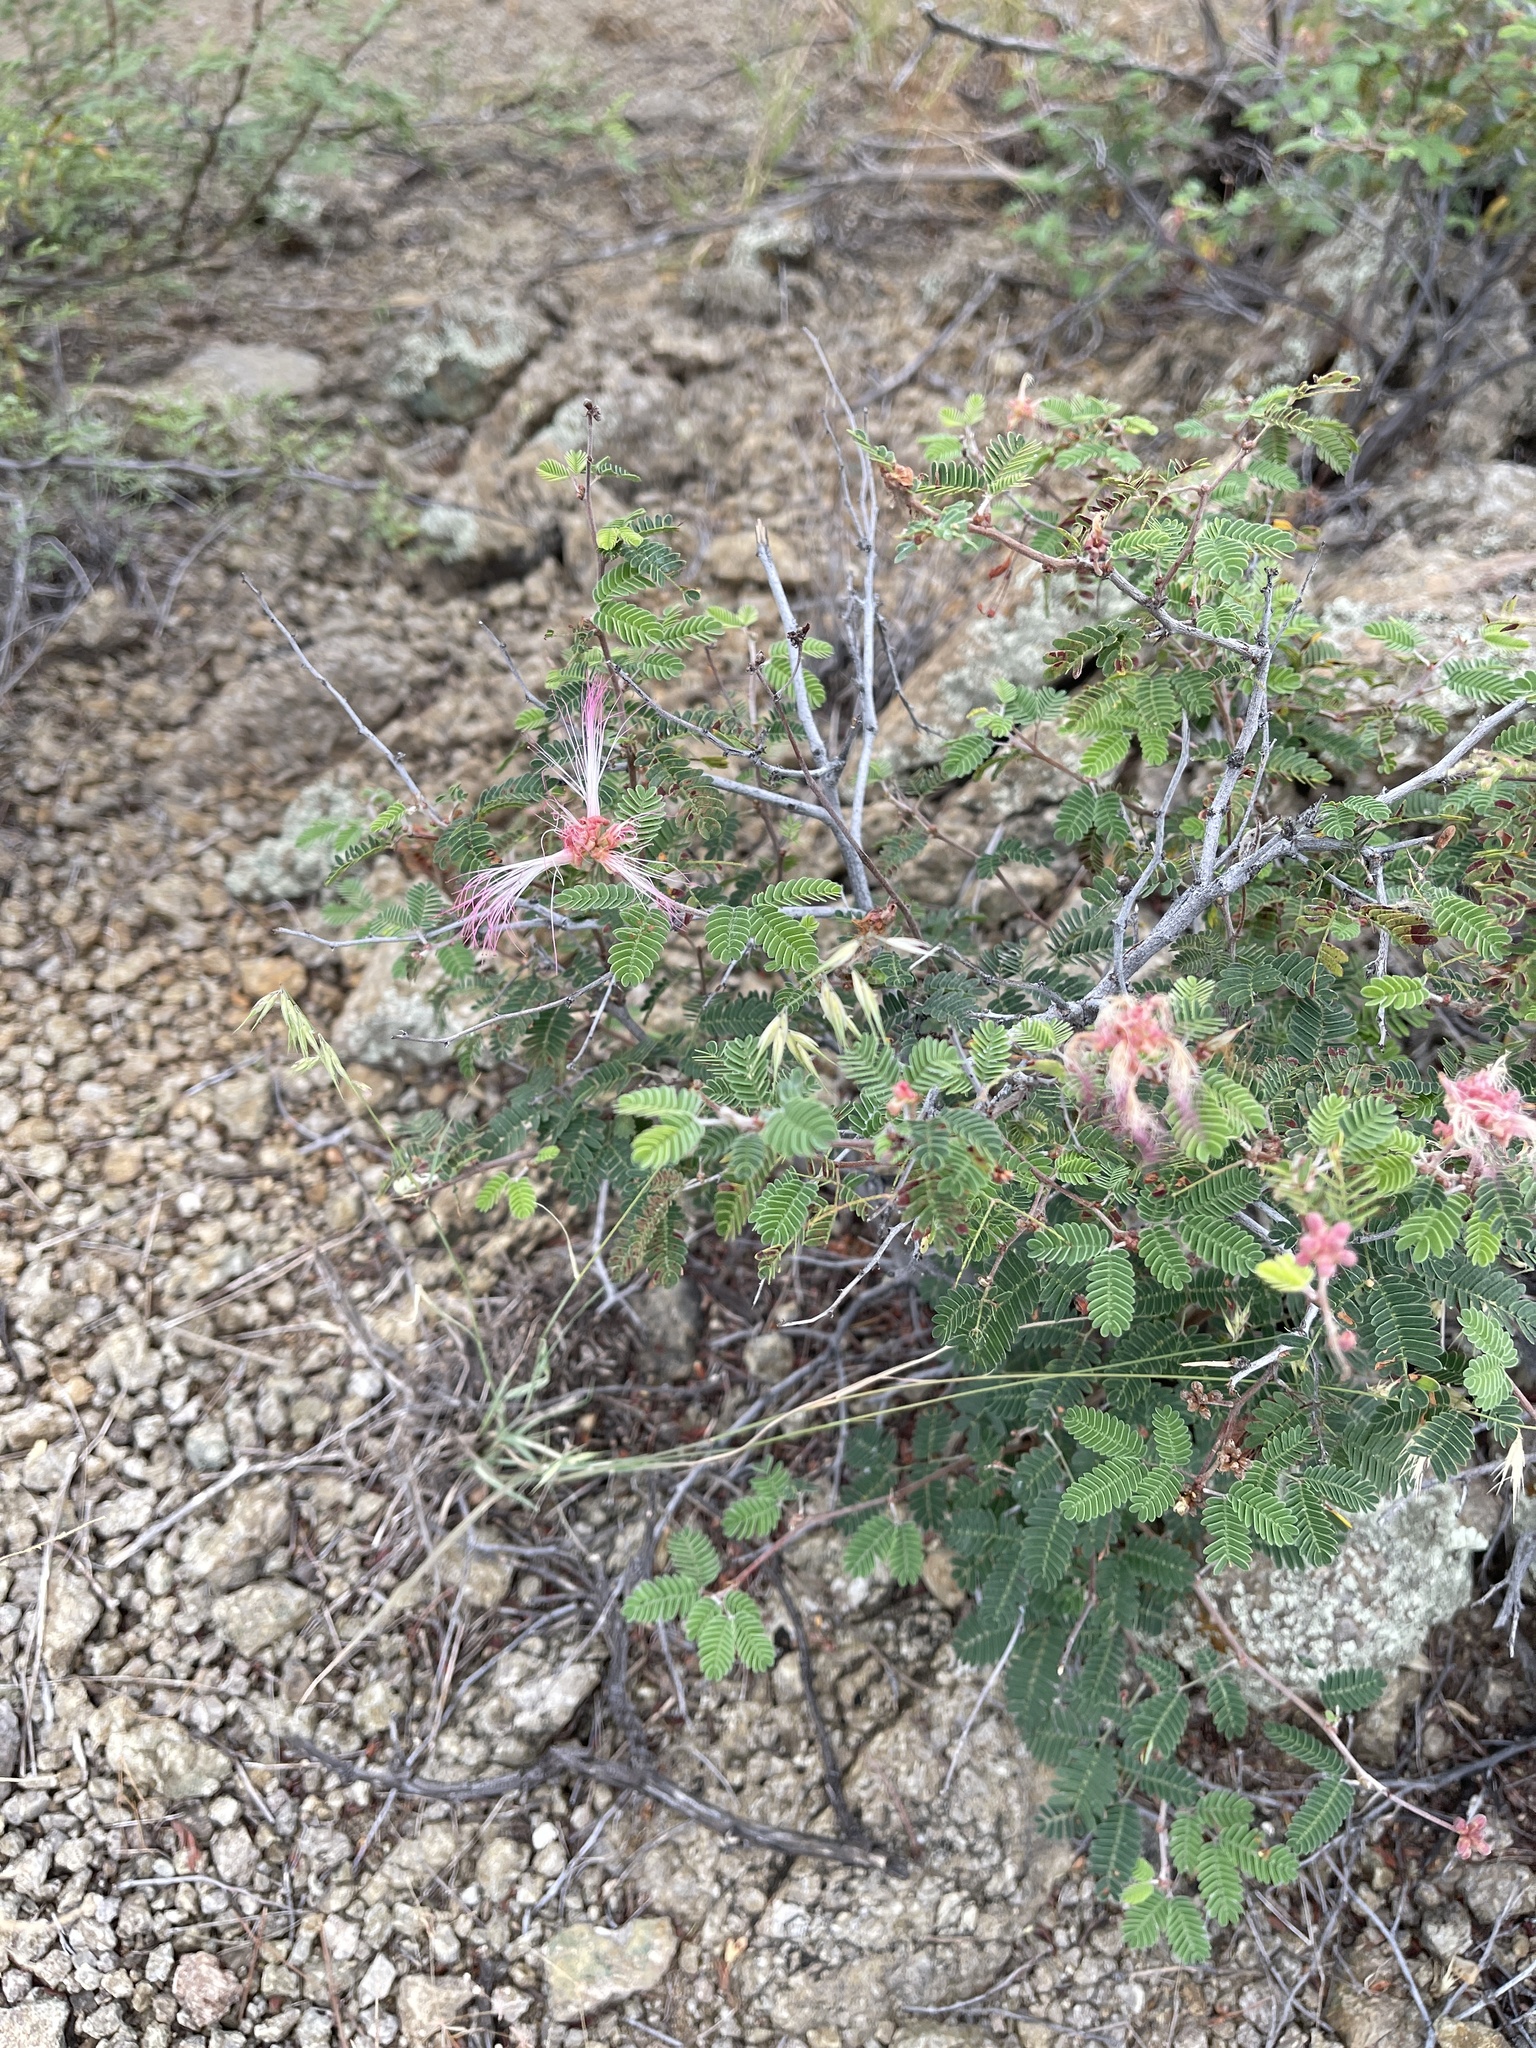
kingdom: Plantae
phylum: Tracheophyta
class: Magnoliopsida
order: Fabales
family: Fabaceae
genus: Calliandra
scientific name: Calliandra eriophylla
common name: Fairy-duster
